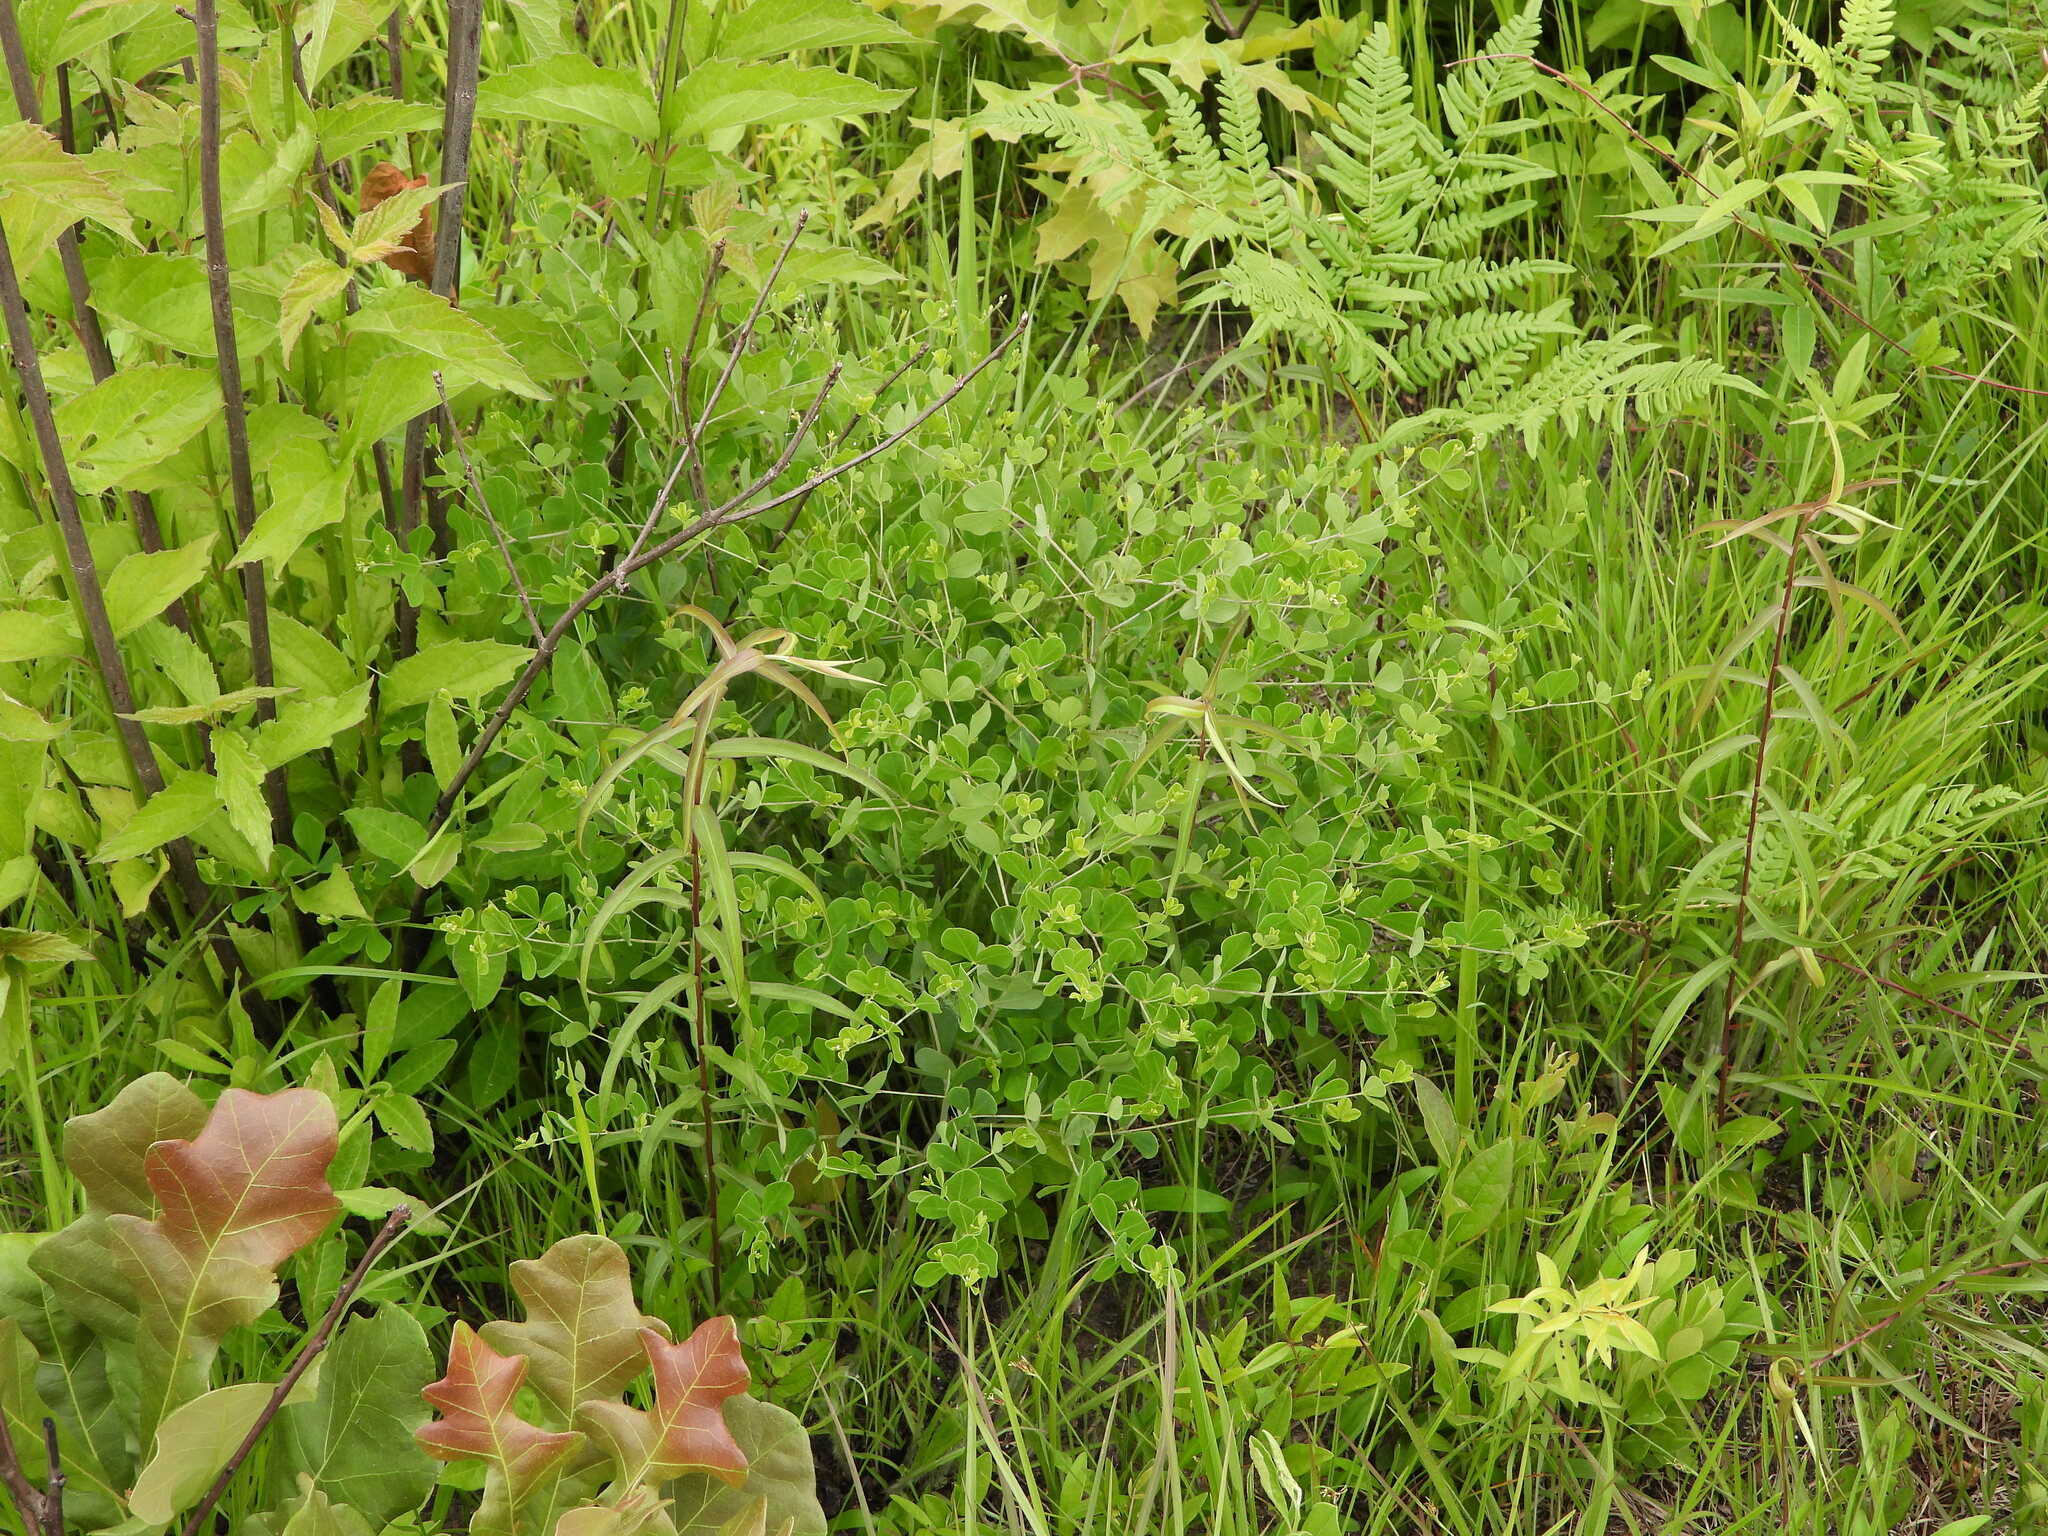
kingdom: Plantae
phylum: Tracheophyta
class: Magnoliopsida
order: Fabales
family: Fabaceae
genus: Baptisia
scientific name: Baptisia tinctoria
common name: Wild indigo
